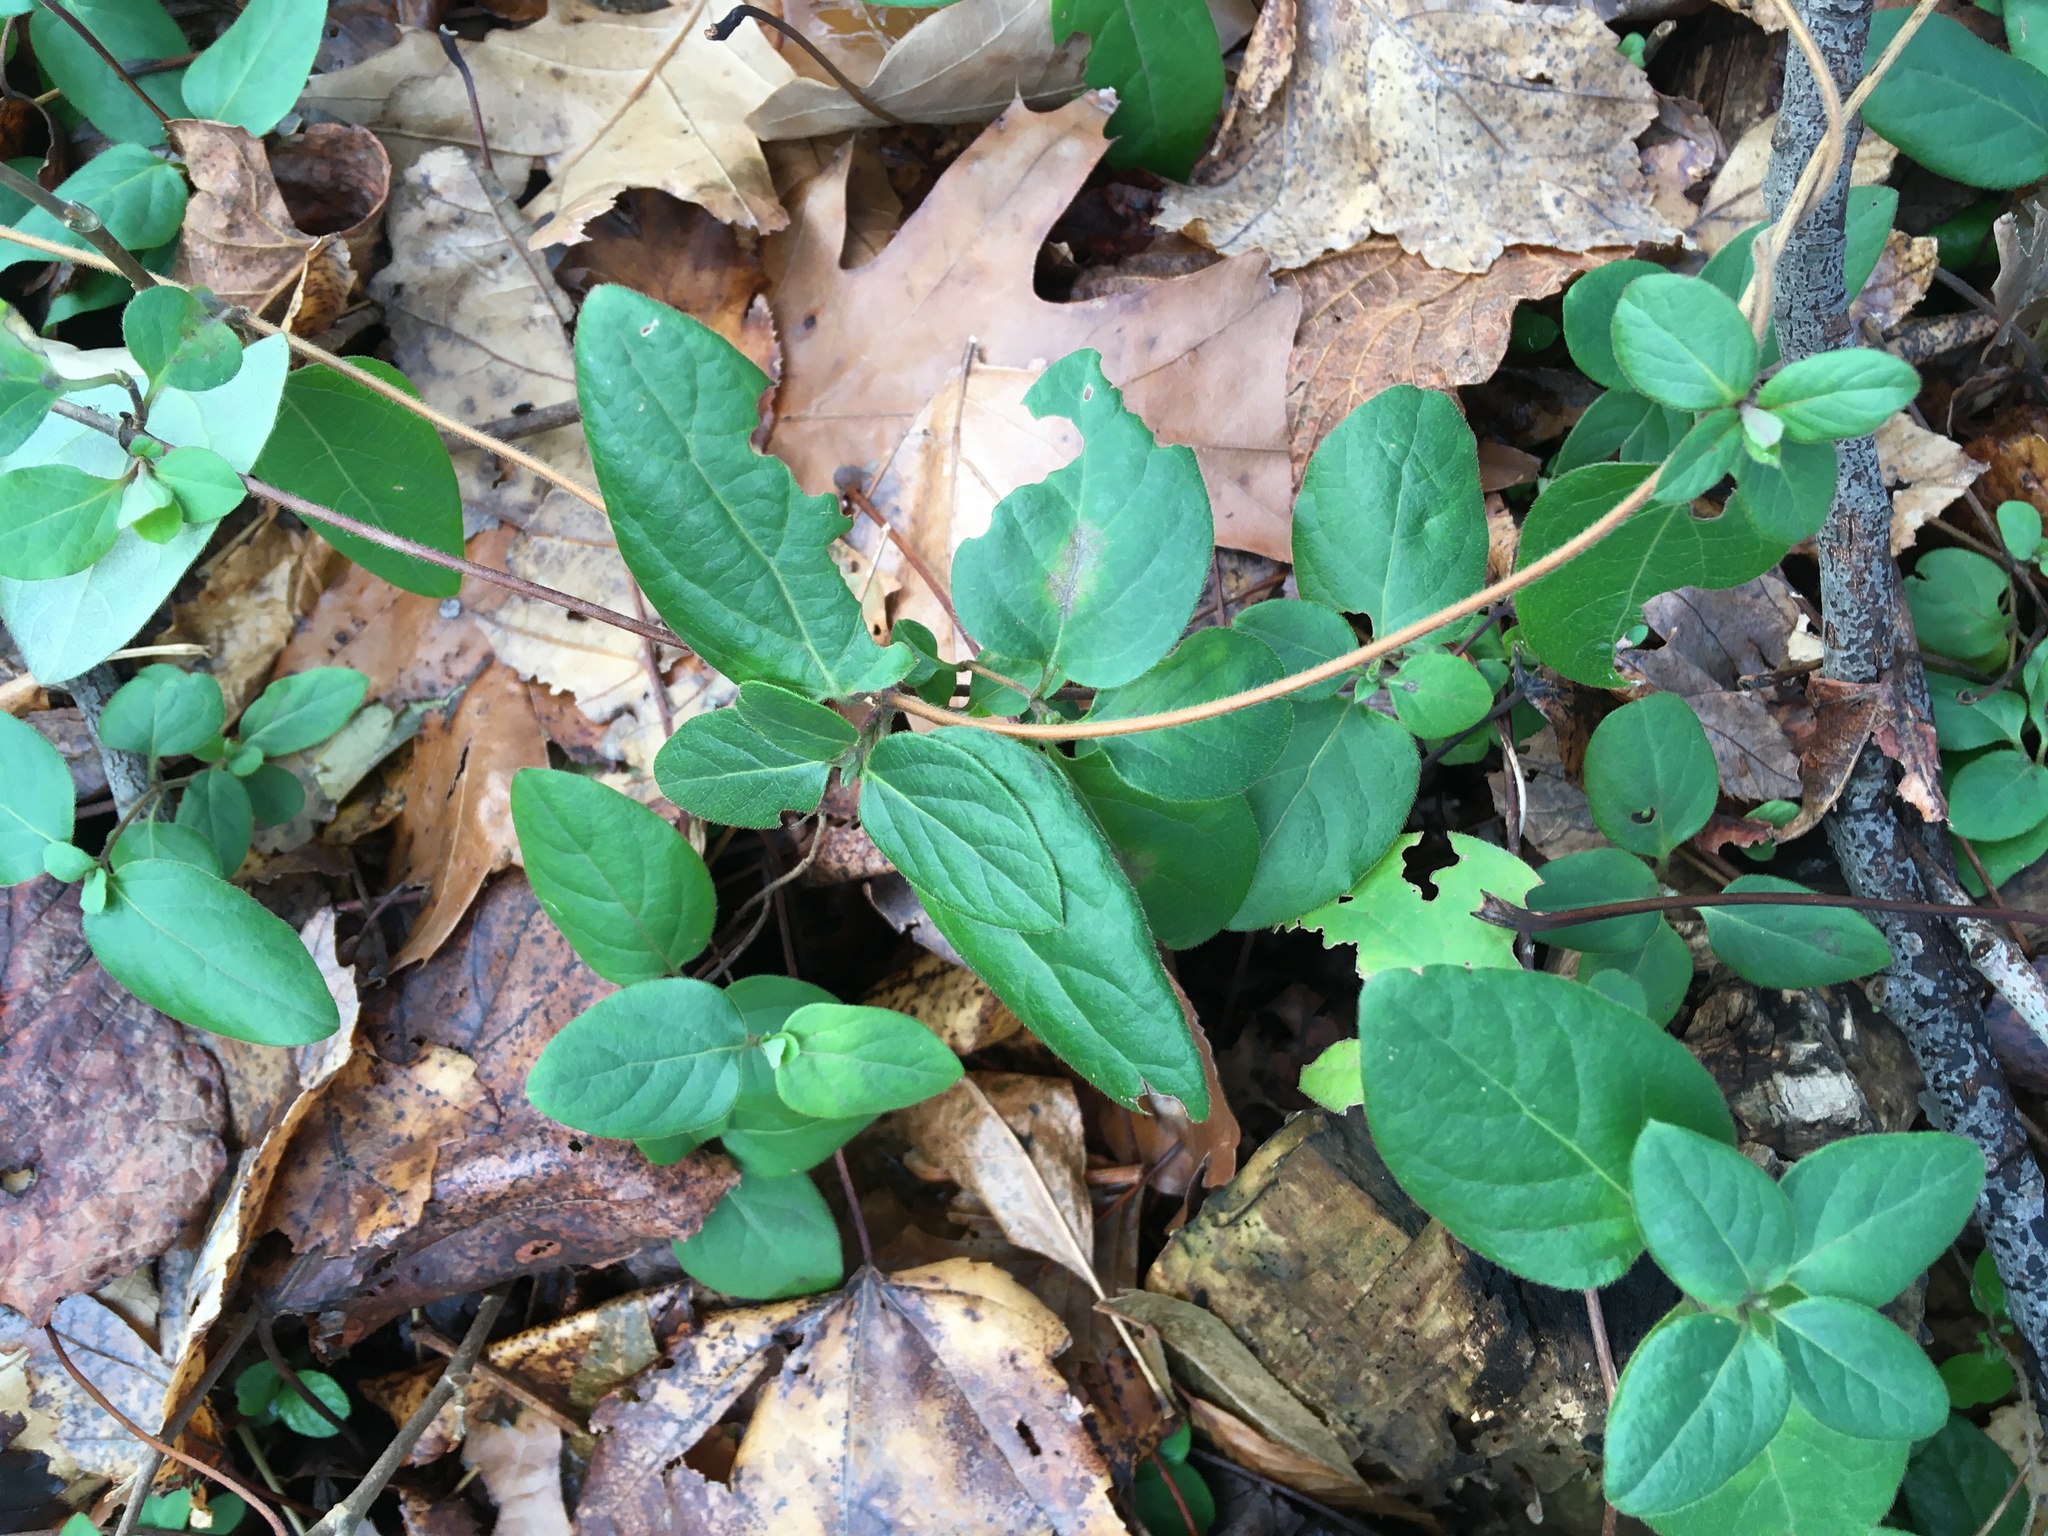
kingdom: Plantae
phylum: Tracheophyta
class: Magnoliopsida
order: Dipsacales
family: Caprifoliaceae
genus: Lonicera
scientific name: Lonicera japonica
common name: Japanese honeysuckle
